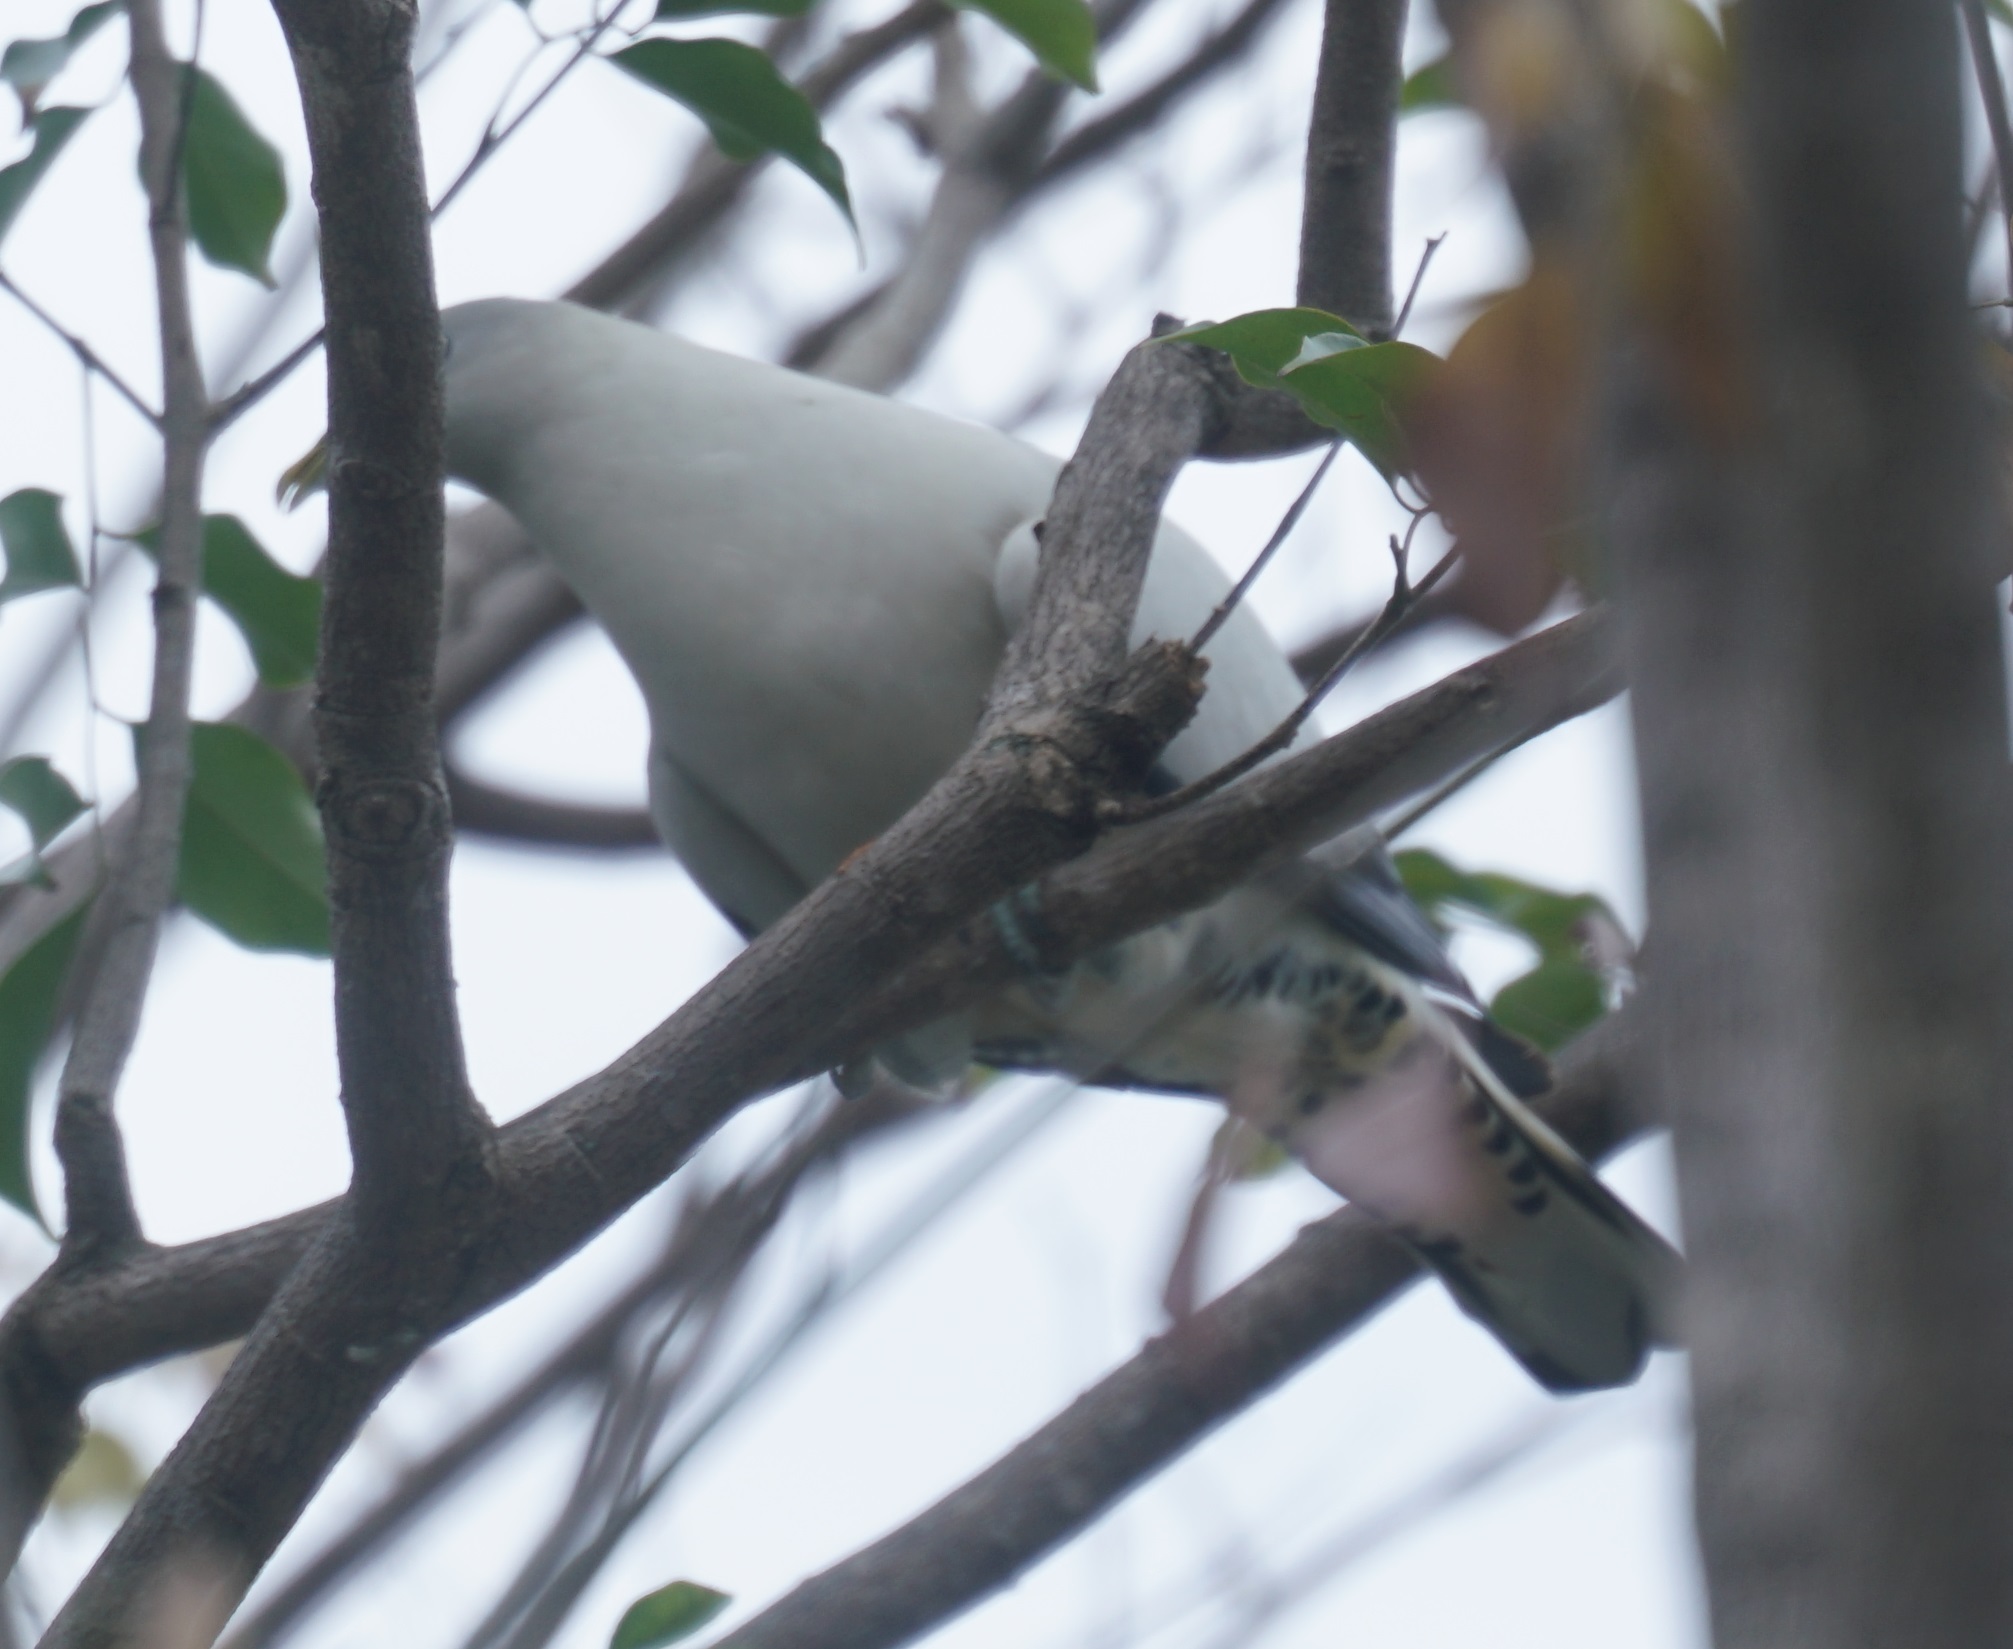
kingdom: Animalia
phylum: Chordata
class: Aves
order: Columbiformes
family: Columbidae
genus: Ducula
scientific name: Ducula spilorrhoa
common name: Torresian imperial pigeon
